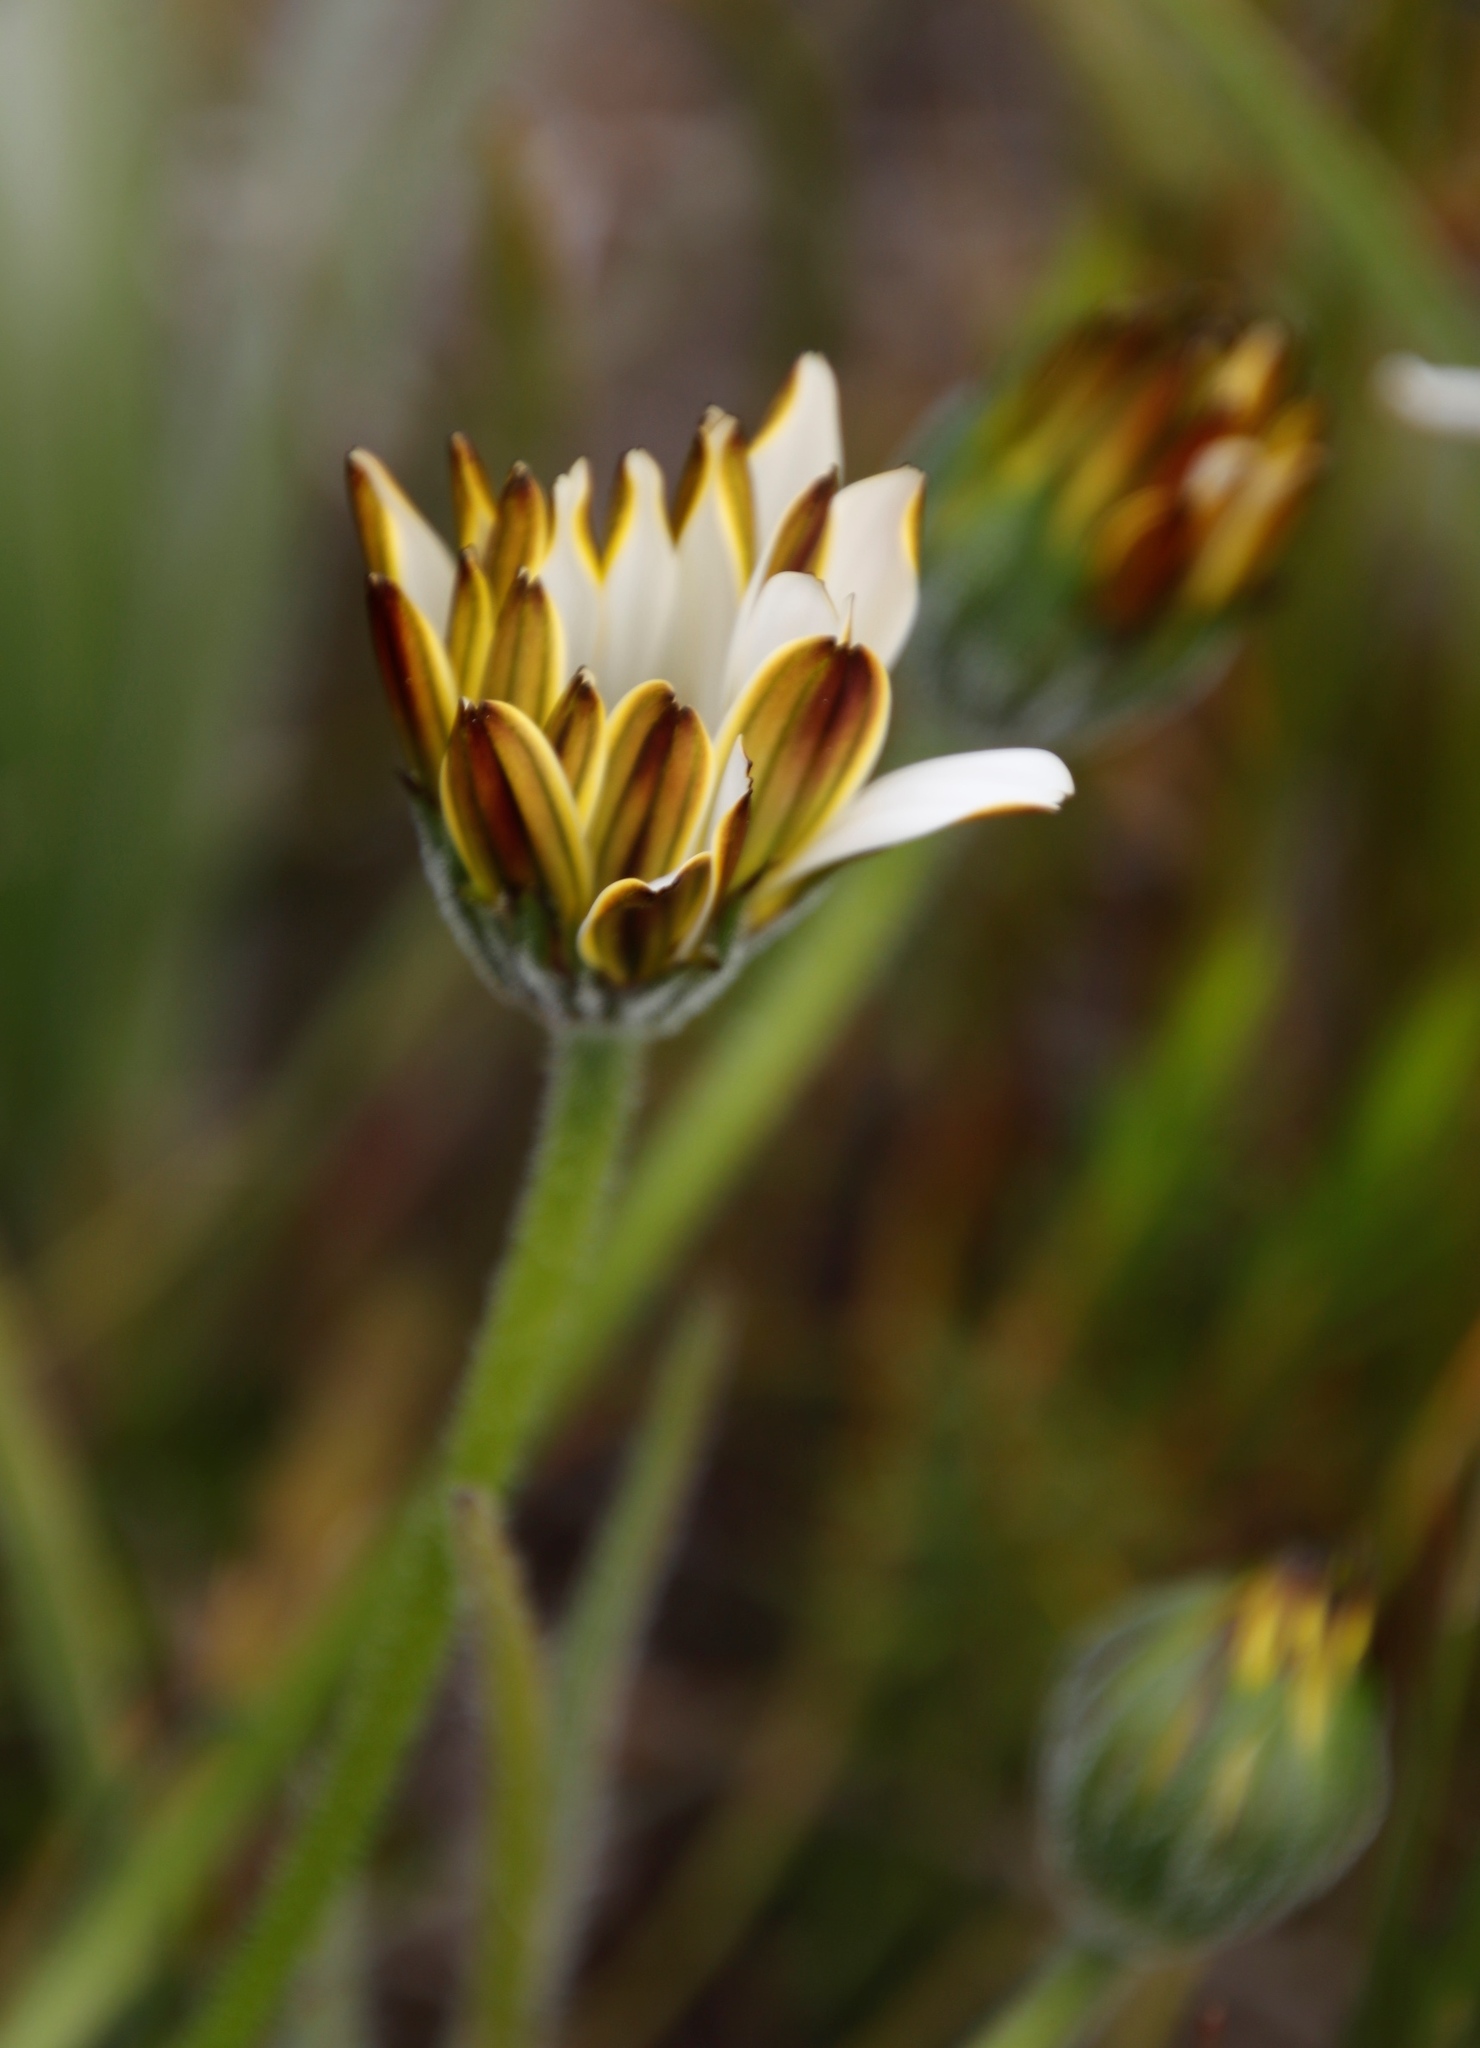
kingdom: Plantae
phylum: Tracheophyta
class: Magnoliopsida
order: Asterales
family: Asteraceae
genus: Dimorphotheca
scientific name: Dimorphotheca nudicaulis
